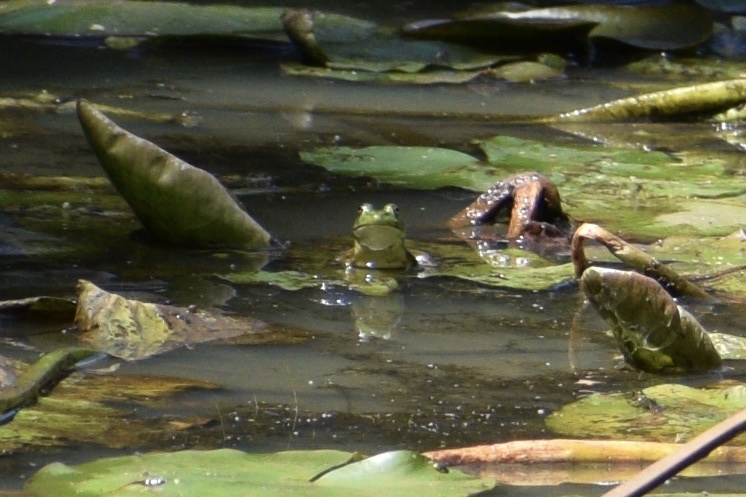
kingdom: Animalia
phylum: Chordata
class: Amphibia
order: Anura
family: Ranidae
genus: Lithobates
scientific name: Lithobates catesbeianus
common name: American bullfrog
